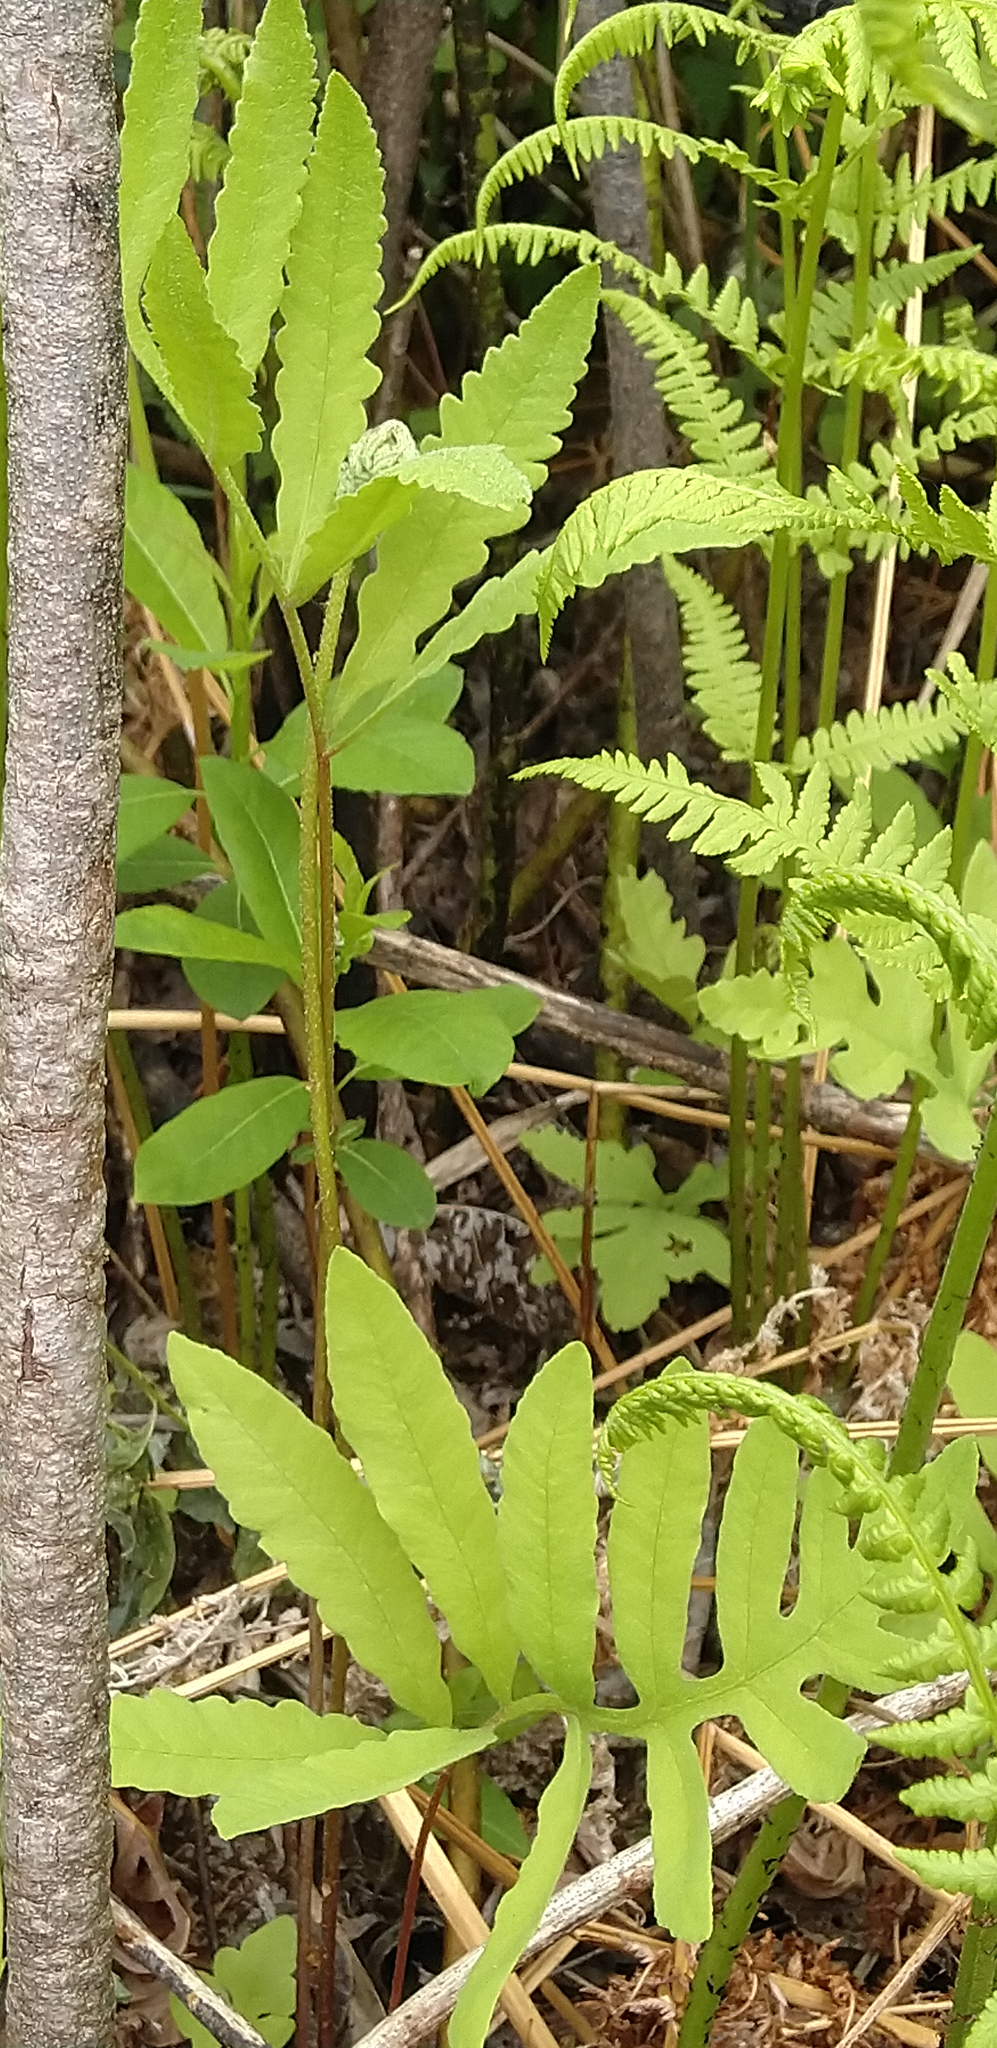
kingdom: Plantae
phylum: Tracheophyta
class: Polypodiopsida
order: Polypodiales
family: Onocleaceae
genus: Onoclea
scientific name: Onoclea sensibilis
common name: Sensitive fern
